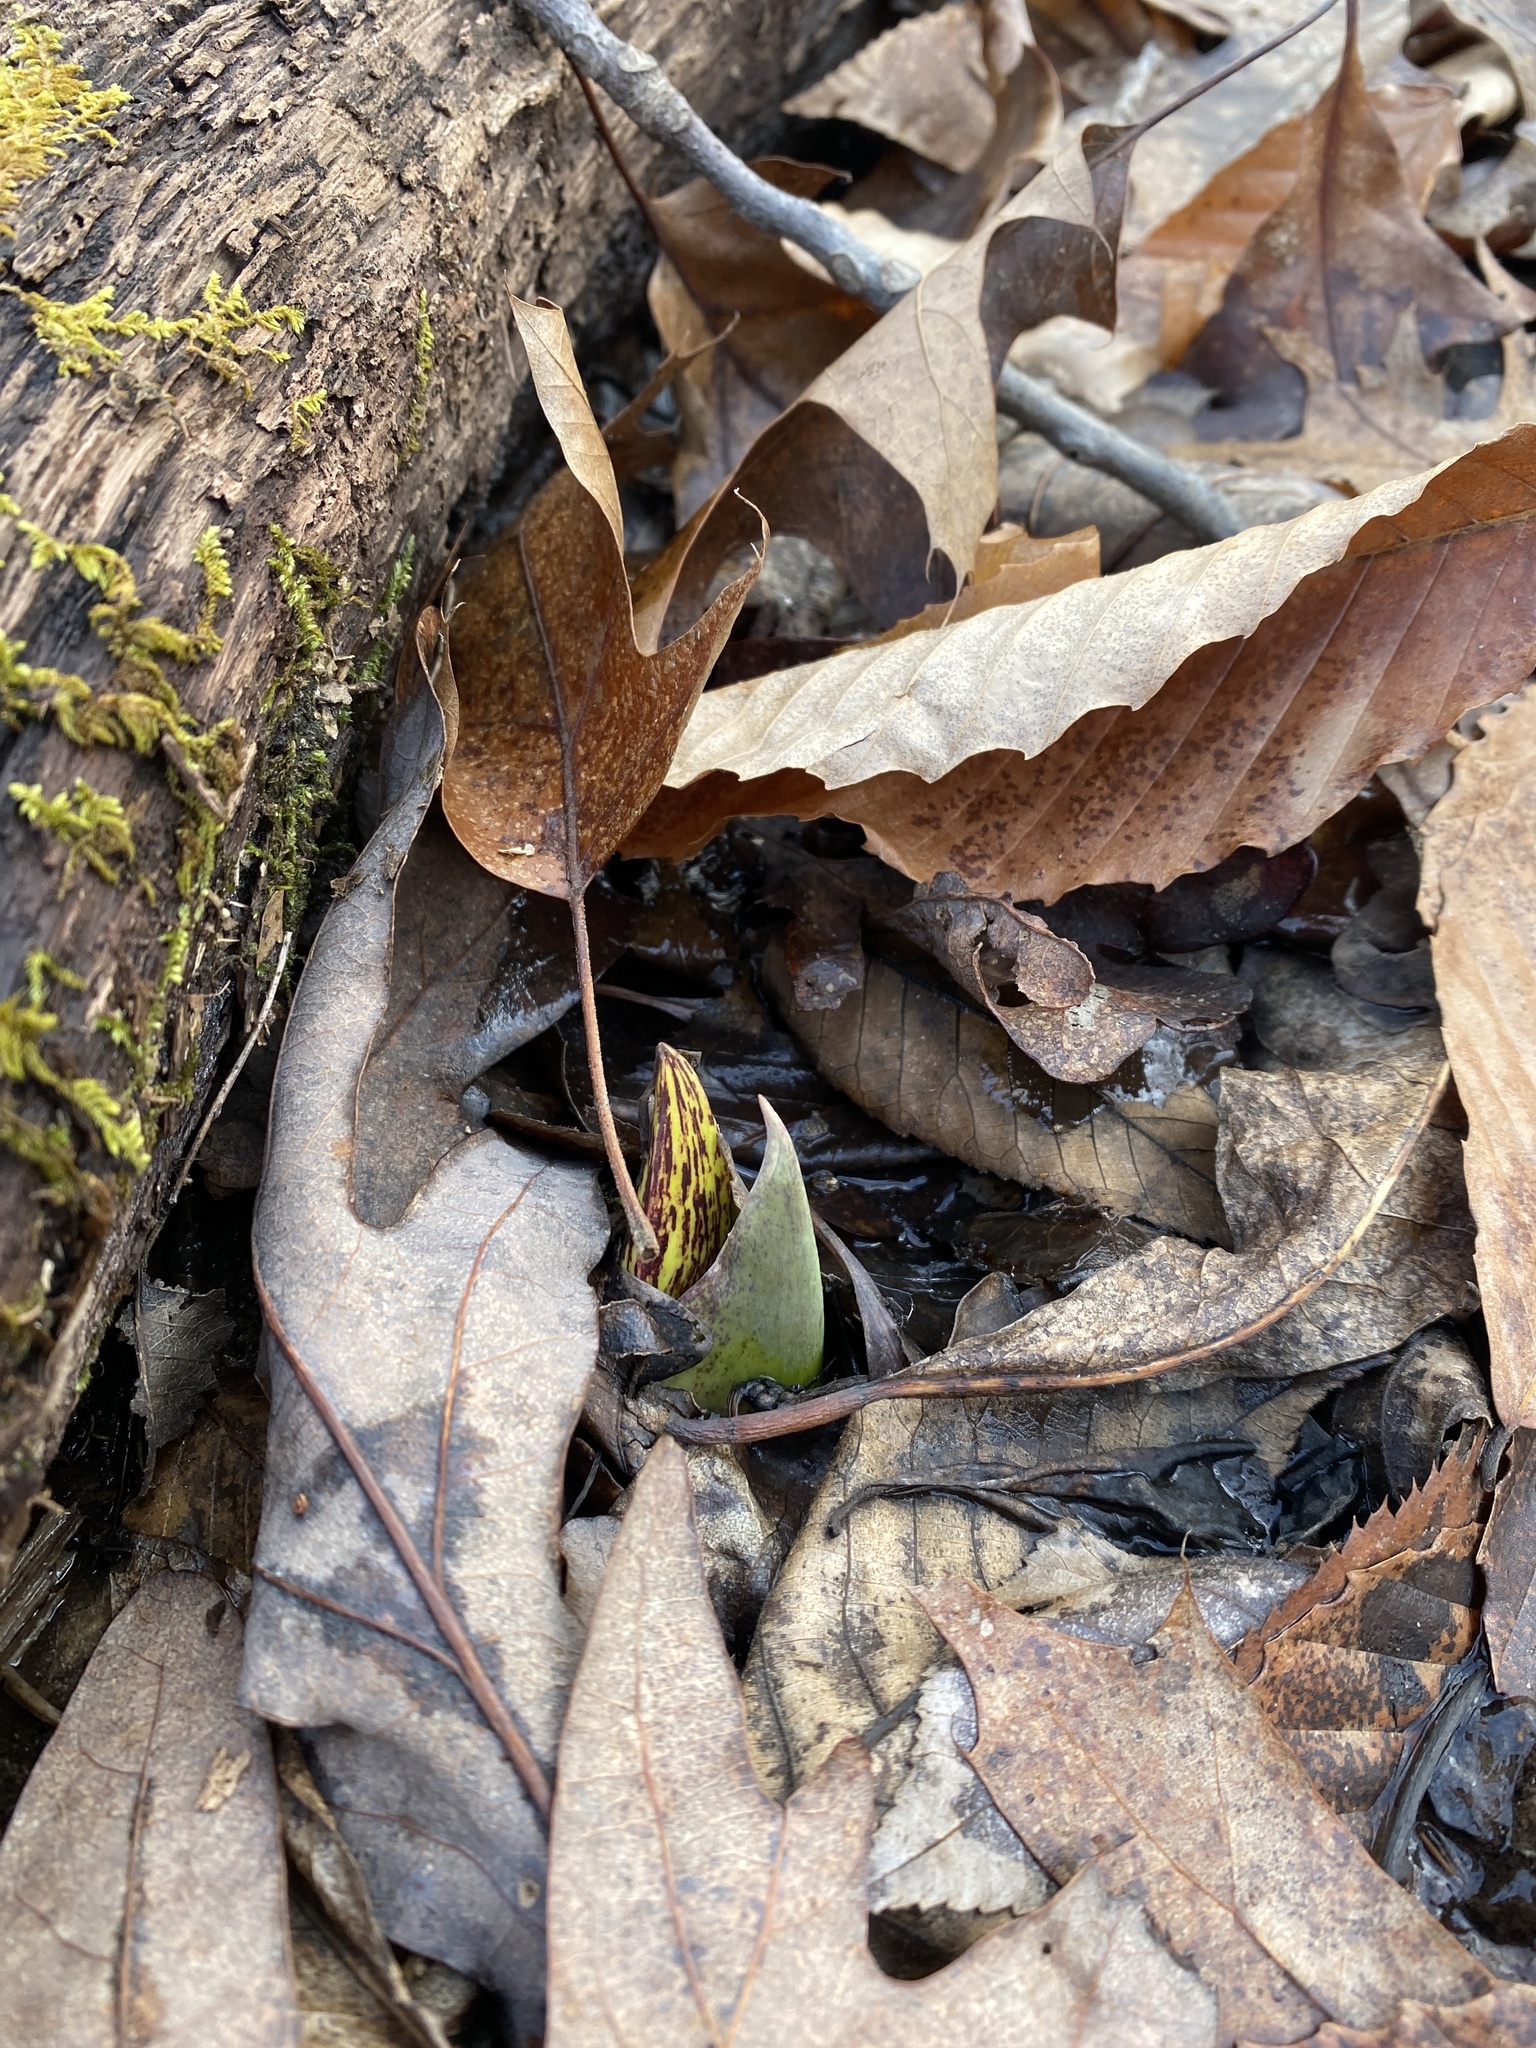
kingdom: Plantae
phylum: Tracheophyta
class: Liliopsida
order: Alismatales
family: Araceae
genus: Symplocarpus
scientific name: Symplocarpus foetidus
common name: Eastern skunk cabbage
